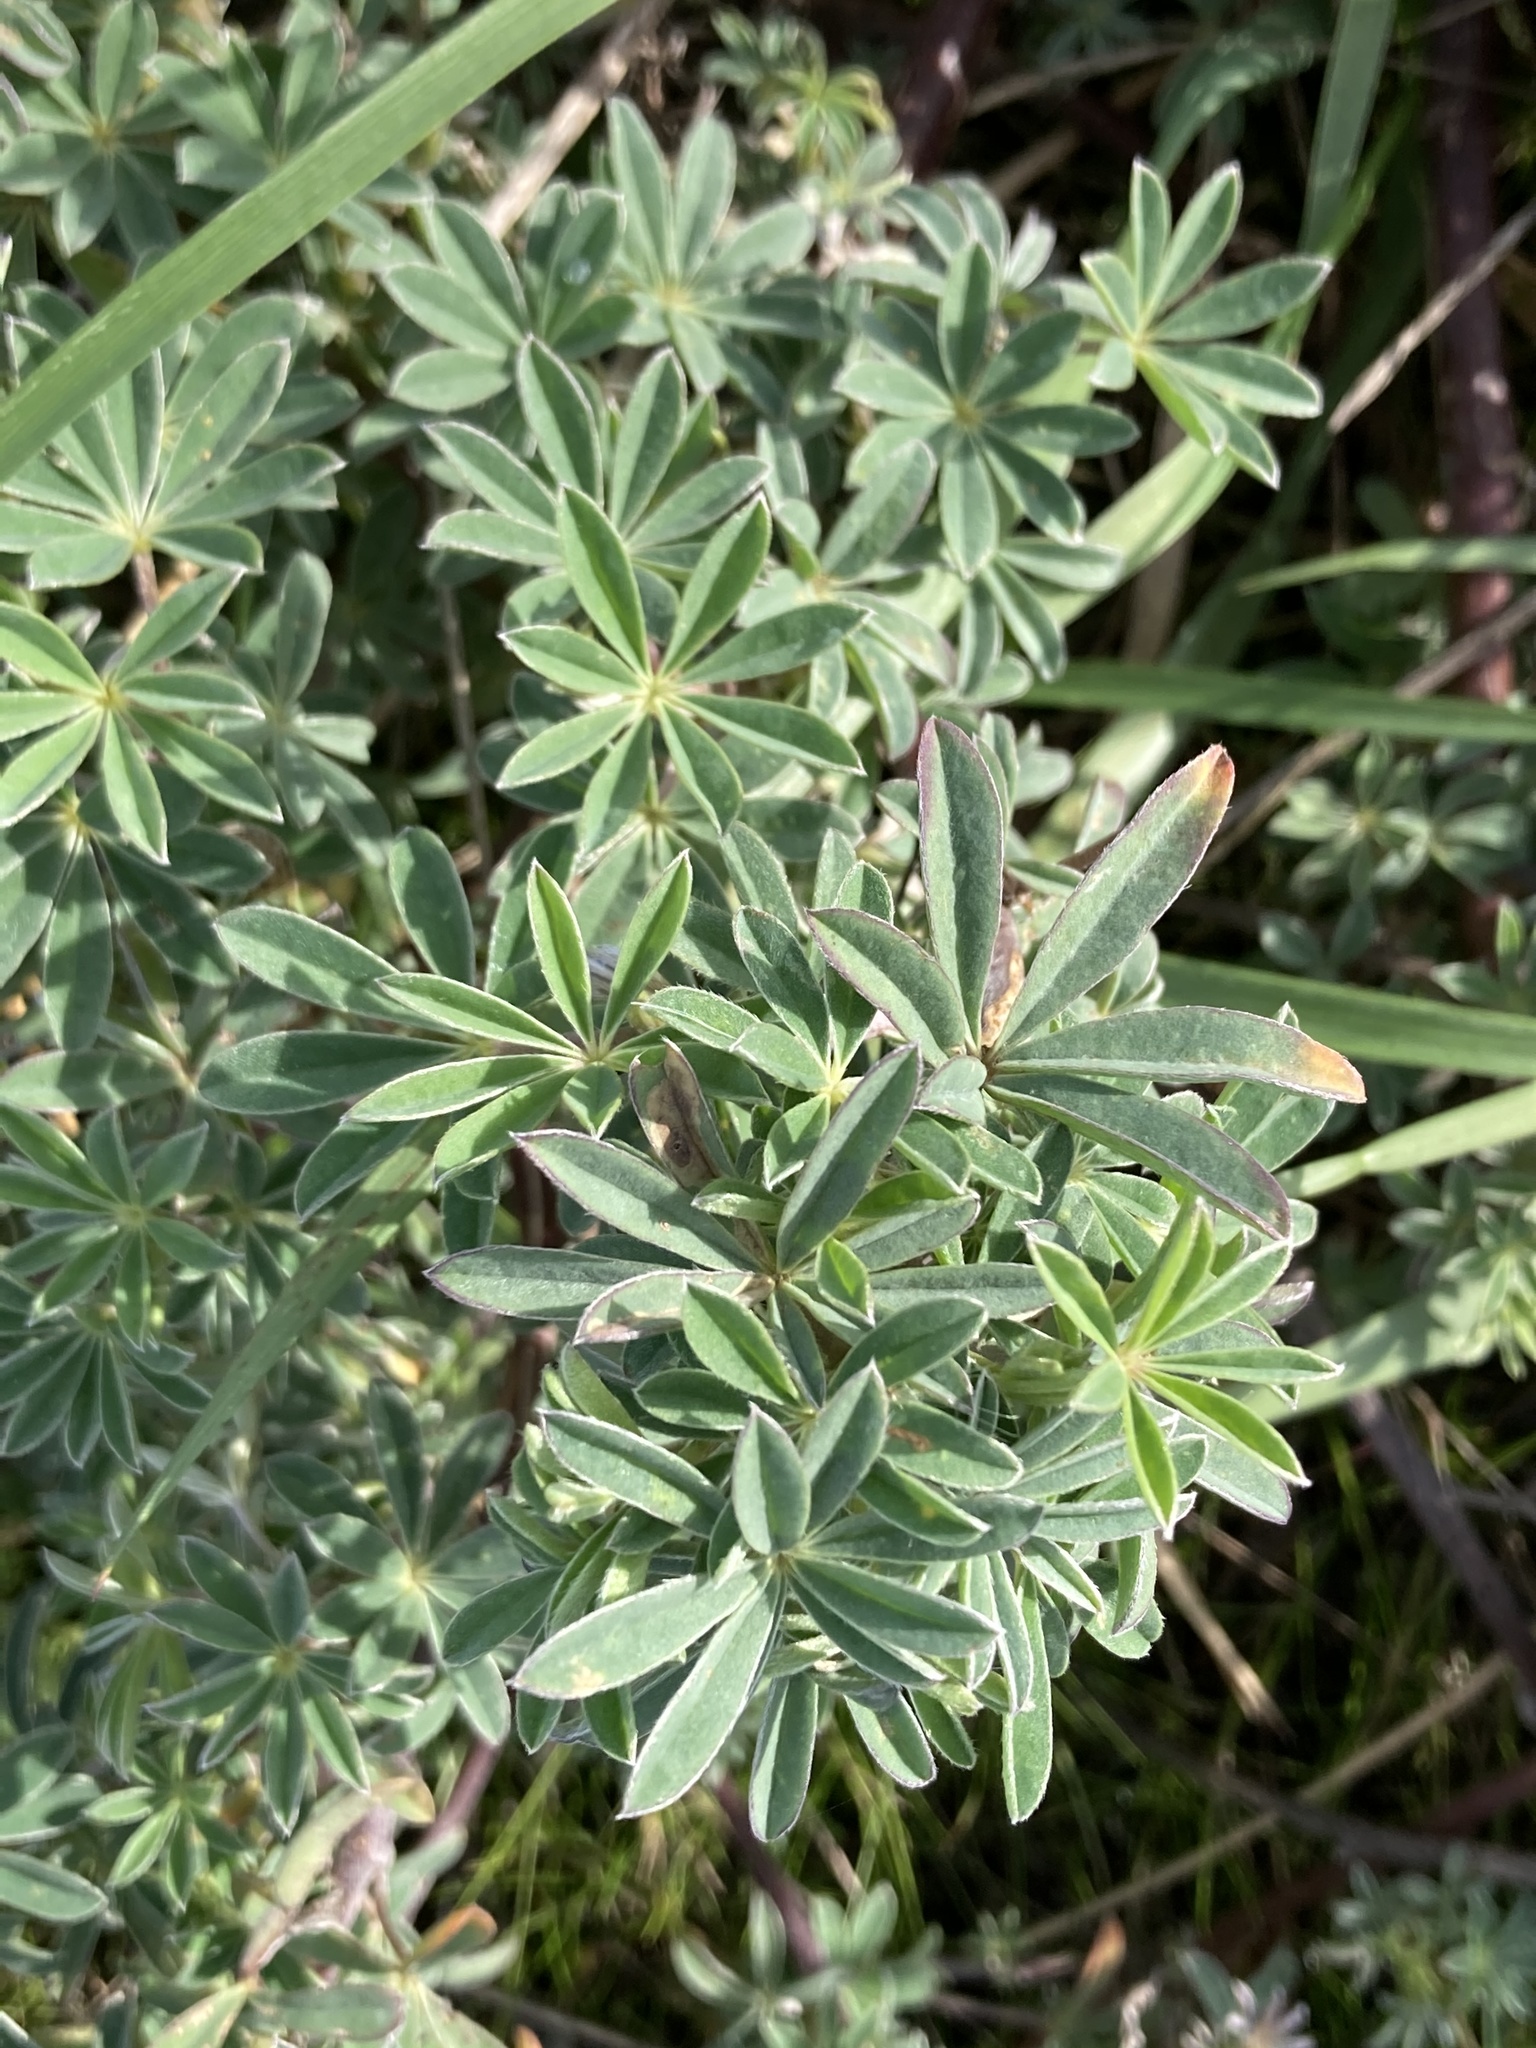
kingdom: Plantae
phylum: Tracheophyta
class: Magnoliopsida
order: Fabales
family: Fabaceae
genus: Lupinus
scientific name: Lupinus littoralis
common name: Seashore lupine
